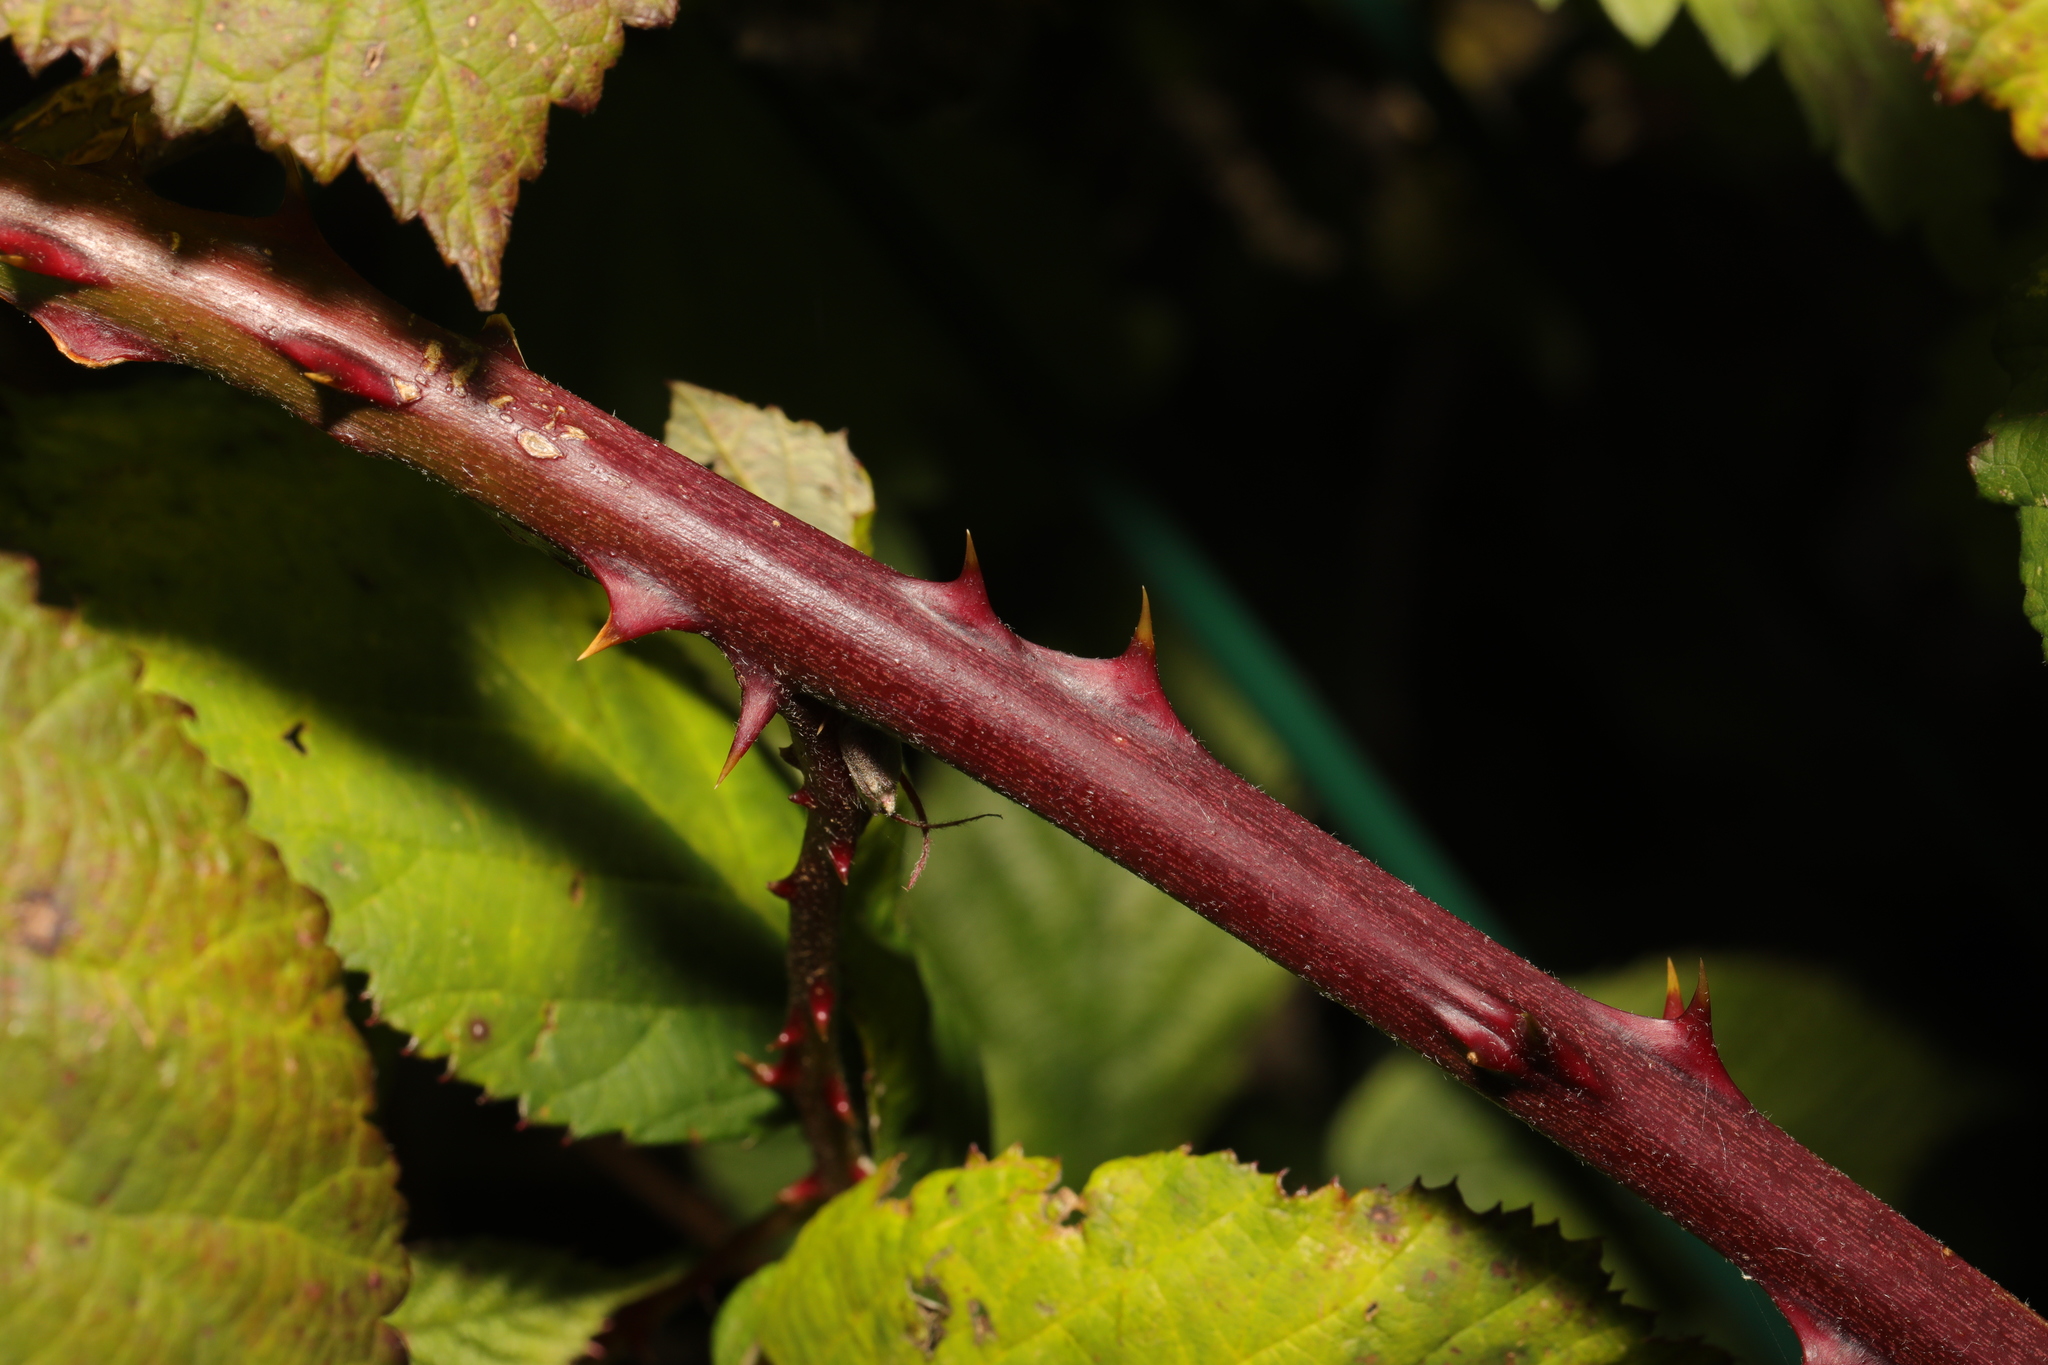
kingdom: Plantae
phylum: Tracheophyta
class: Magnoliopsida
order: Rosales
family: Rosaceae
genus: Rubus
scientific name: Rubus armeniacus
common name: Himalayan blackberry
